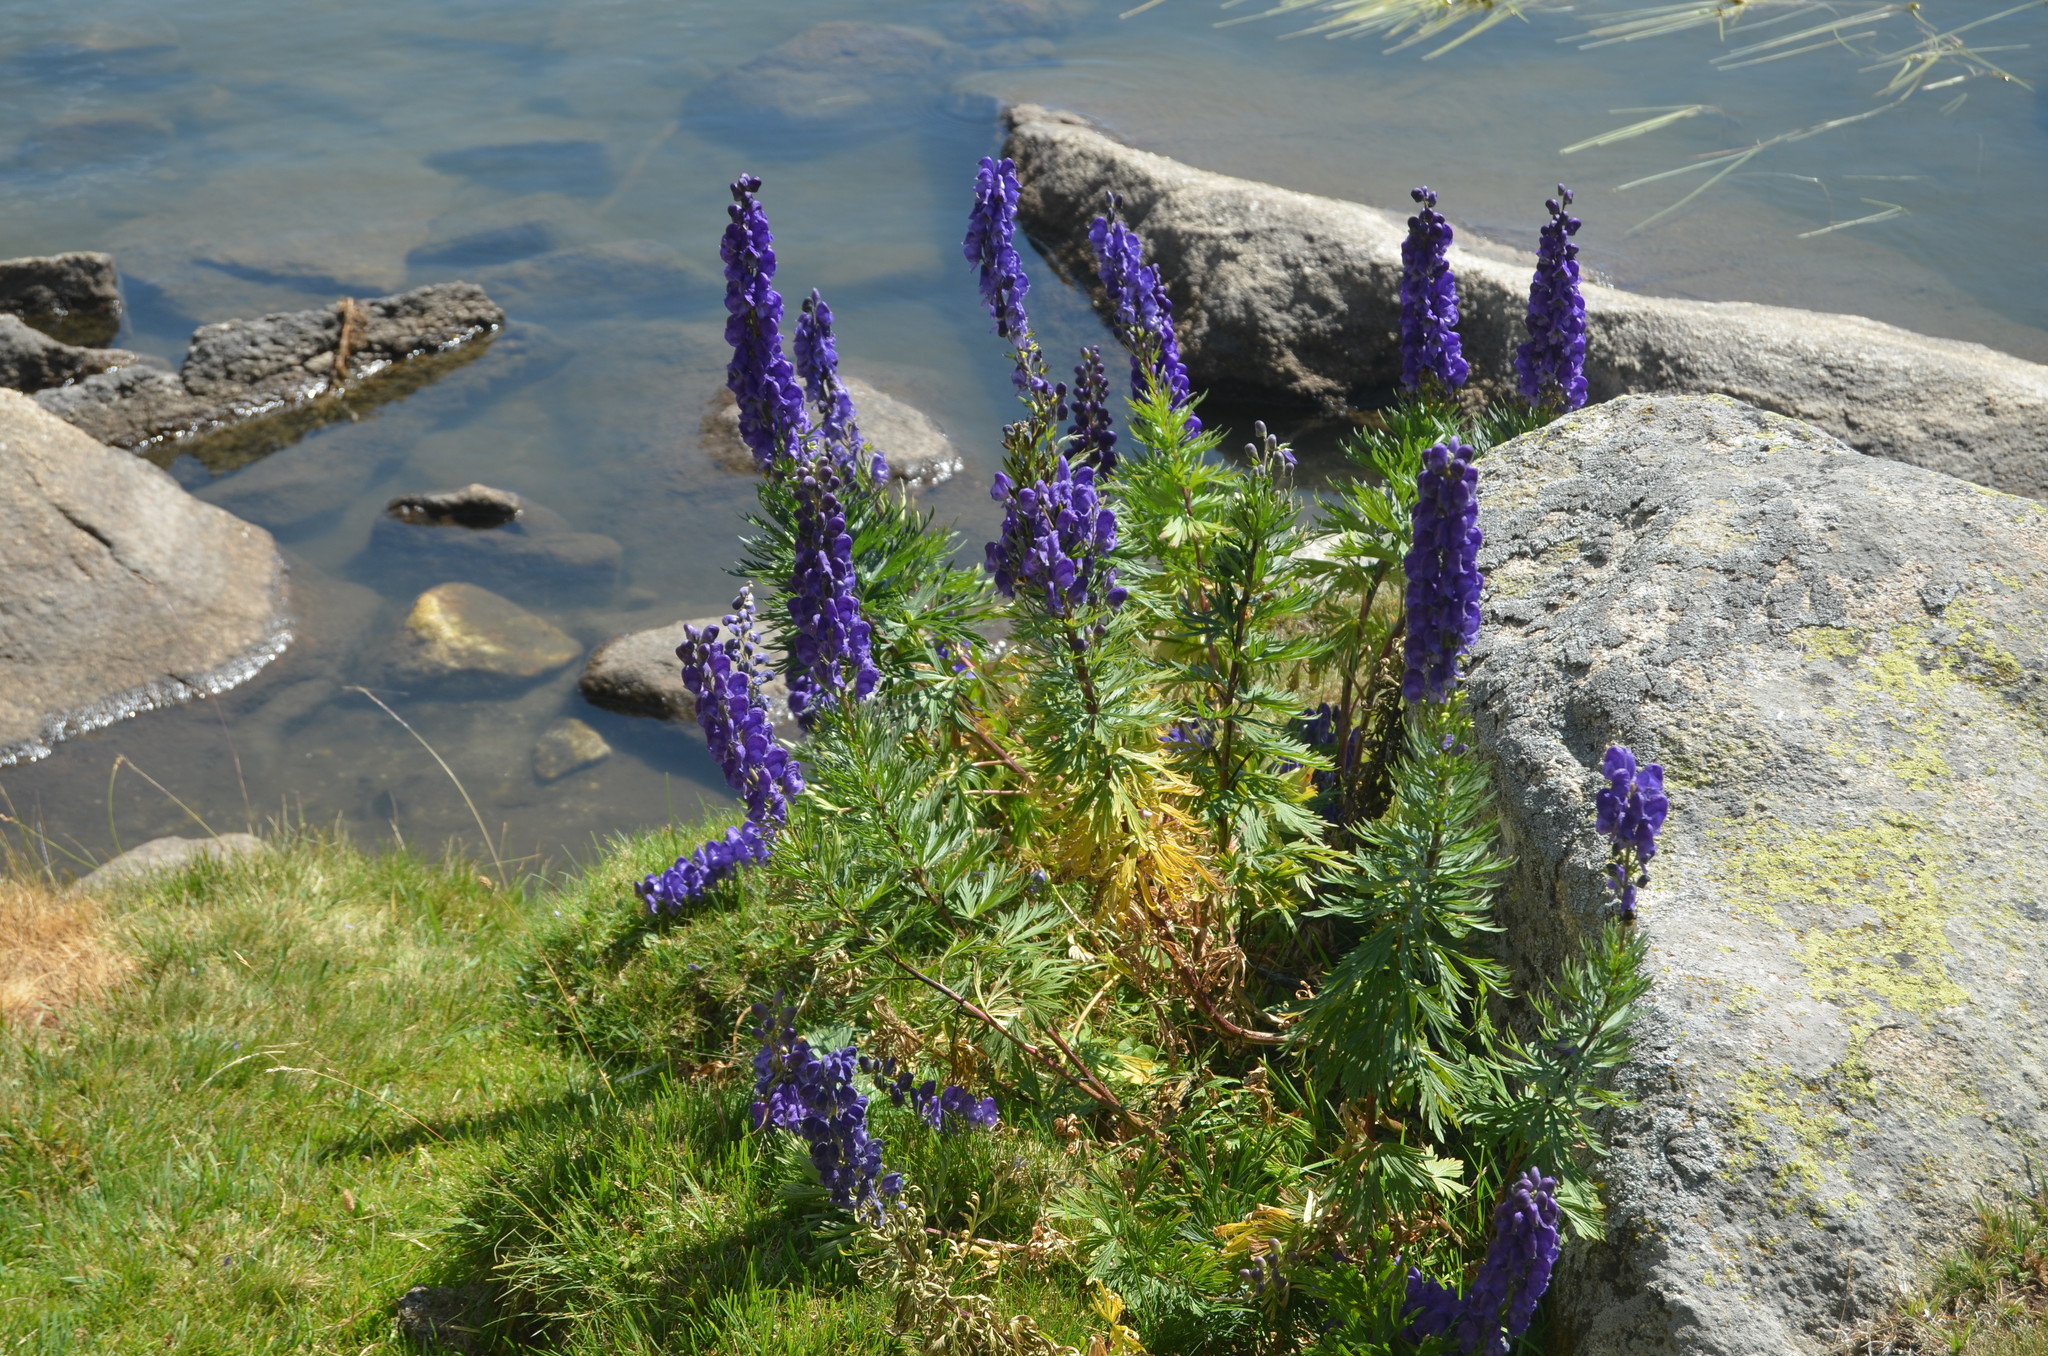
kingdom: Plantae
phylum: Tracheophyta
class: Magnoliopsida
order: Ranunculales
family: Ranunculaceae
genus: Aconitum
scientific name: Aconitum napellus
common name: Garden monkshood
